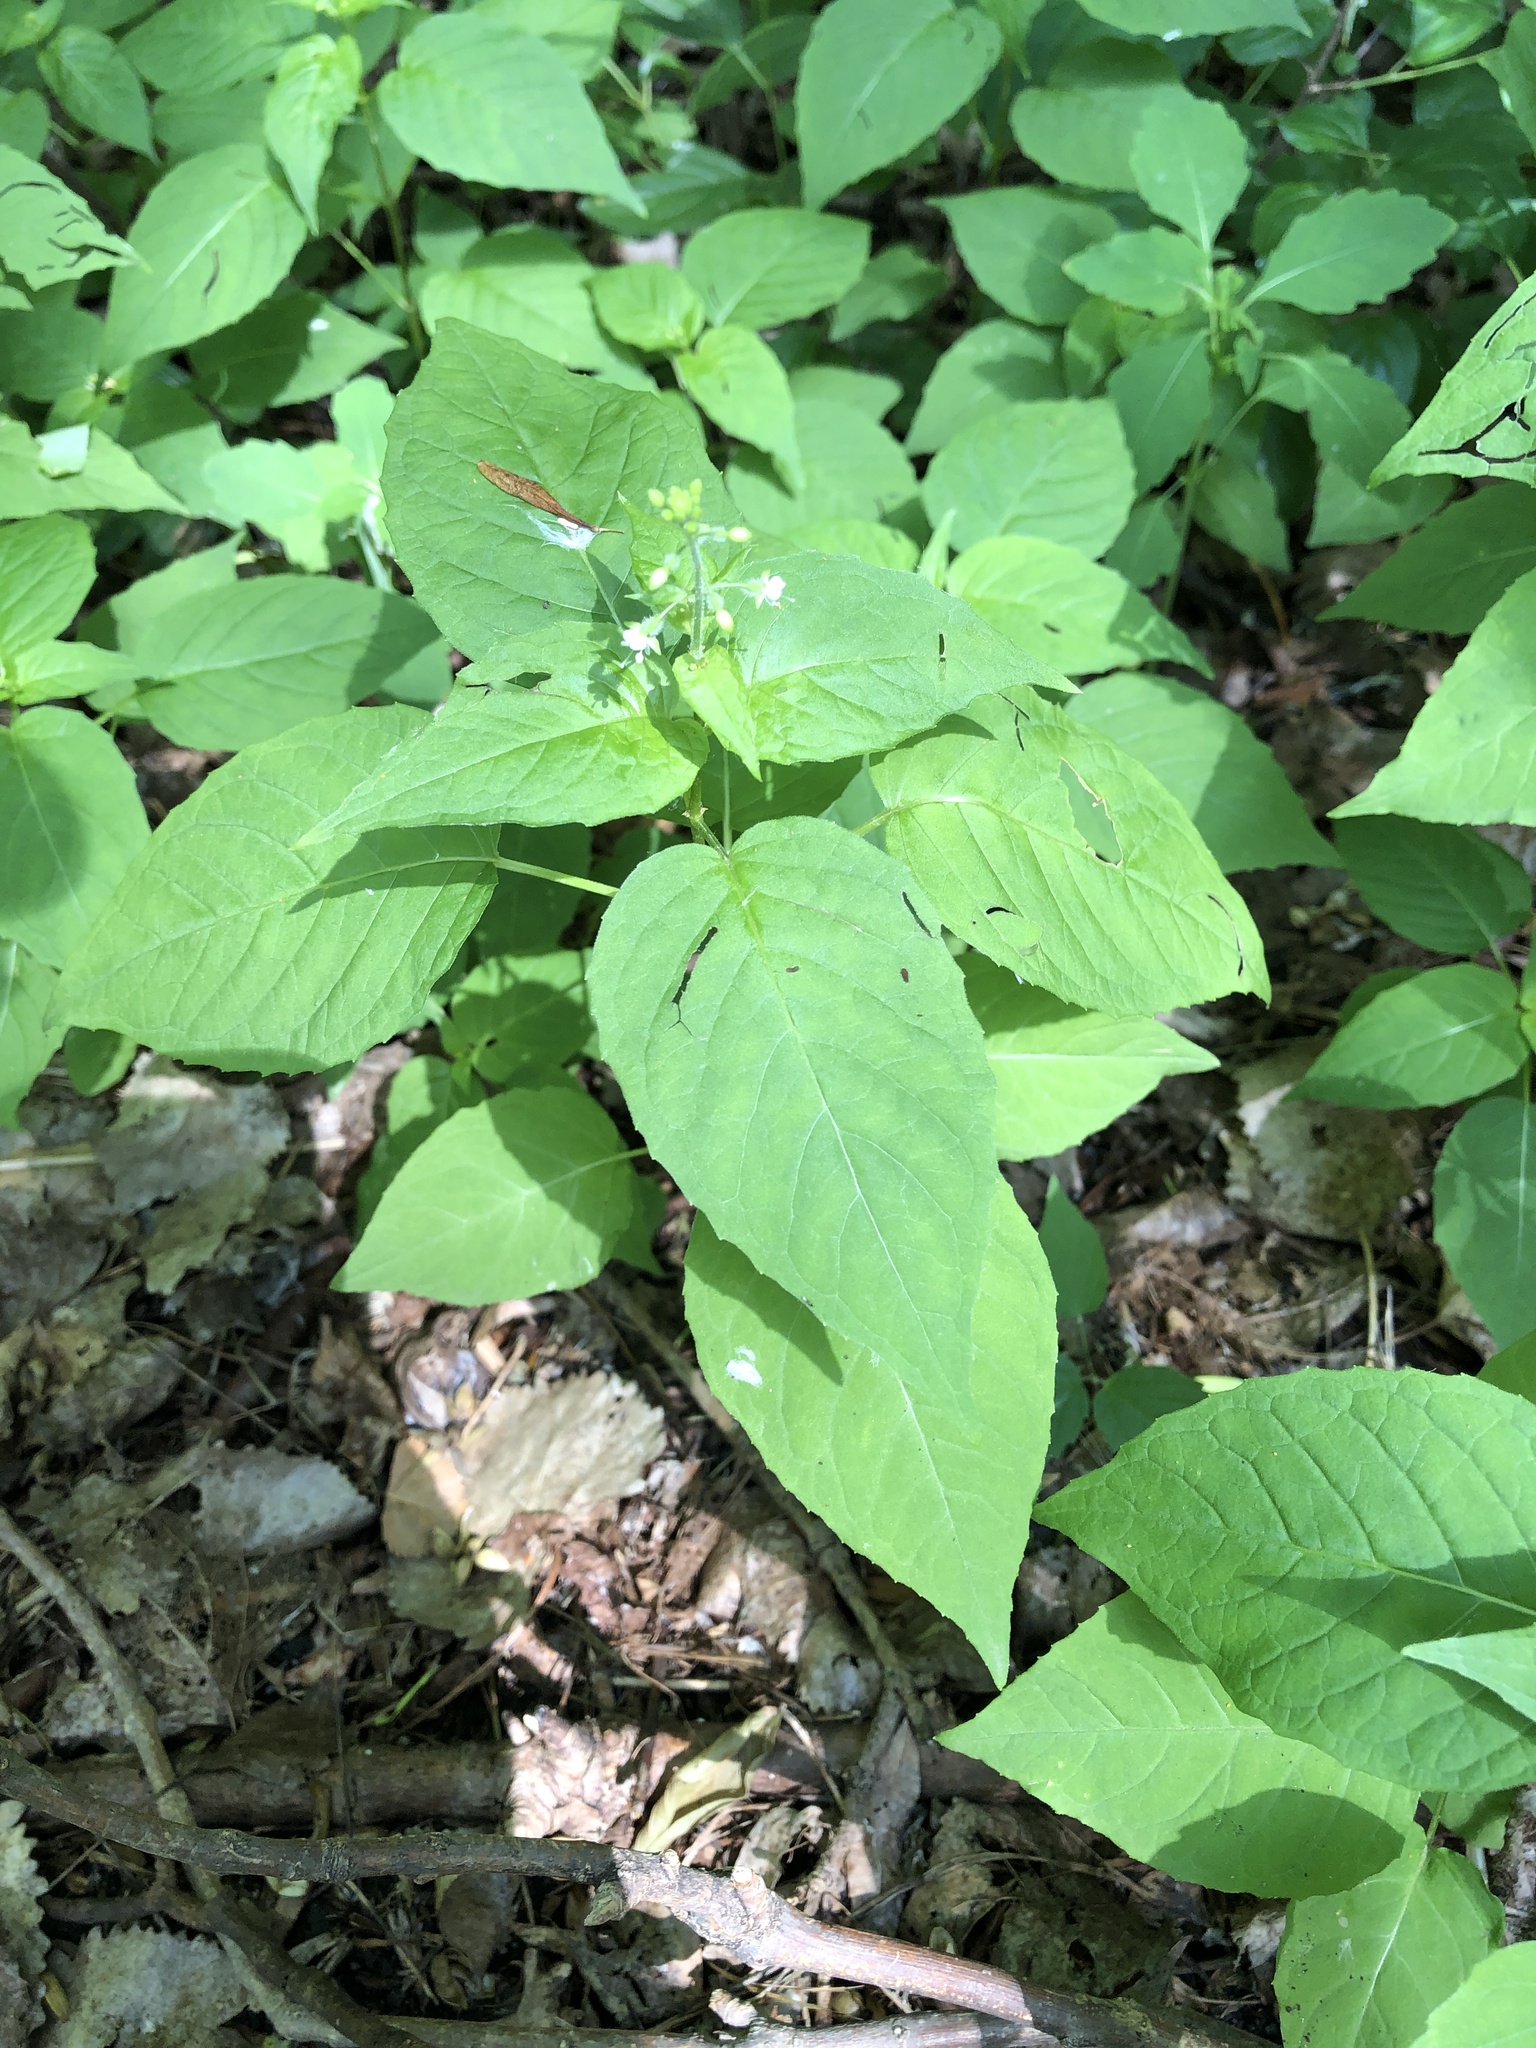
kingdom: Plantae
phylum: Tracheophyta
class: Magnoliopsida
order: Myrtales
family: Onagraceae
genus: Circaea
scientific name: Circaea canadensis
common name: Broad-leaved enchanter's nightshade
